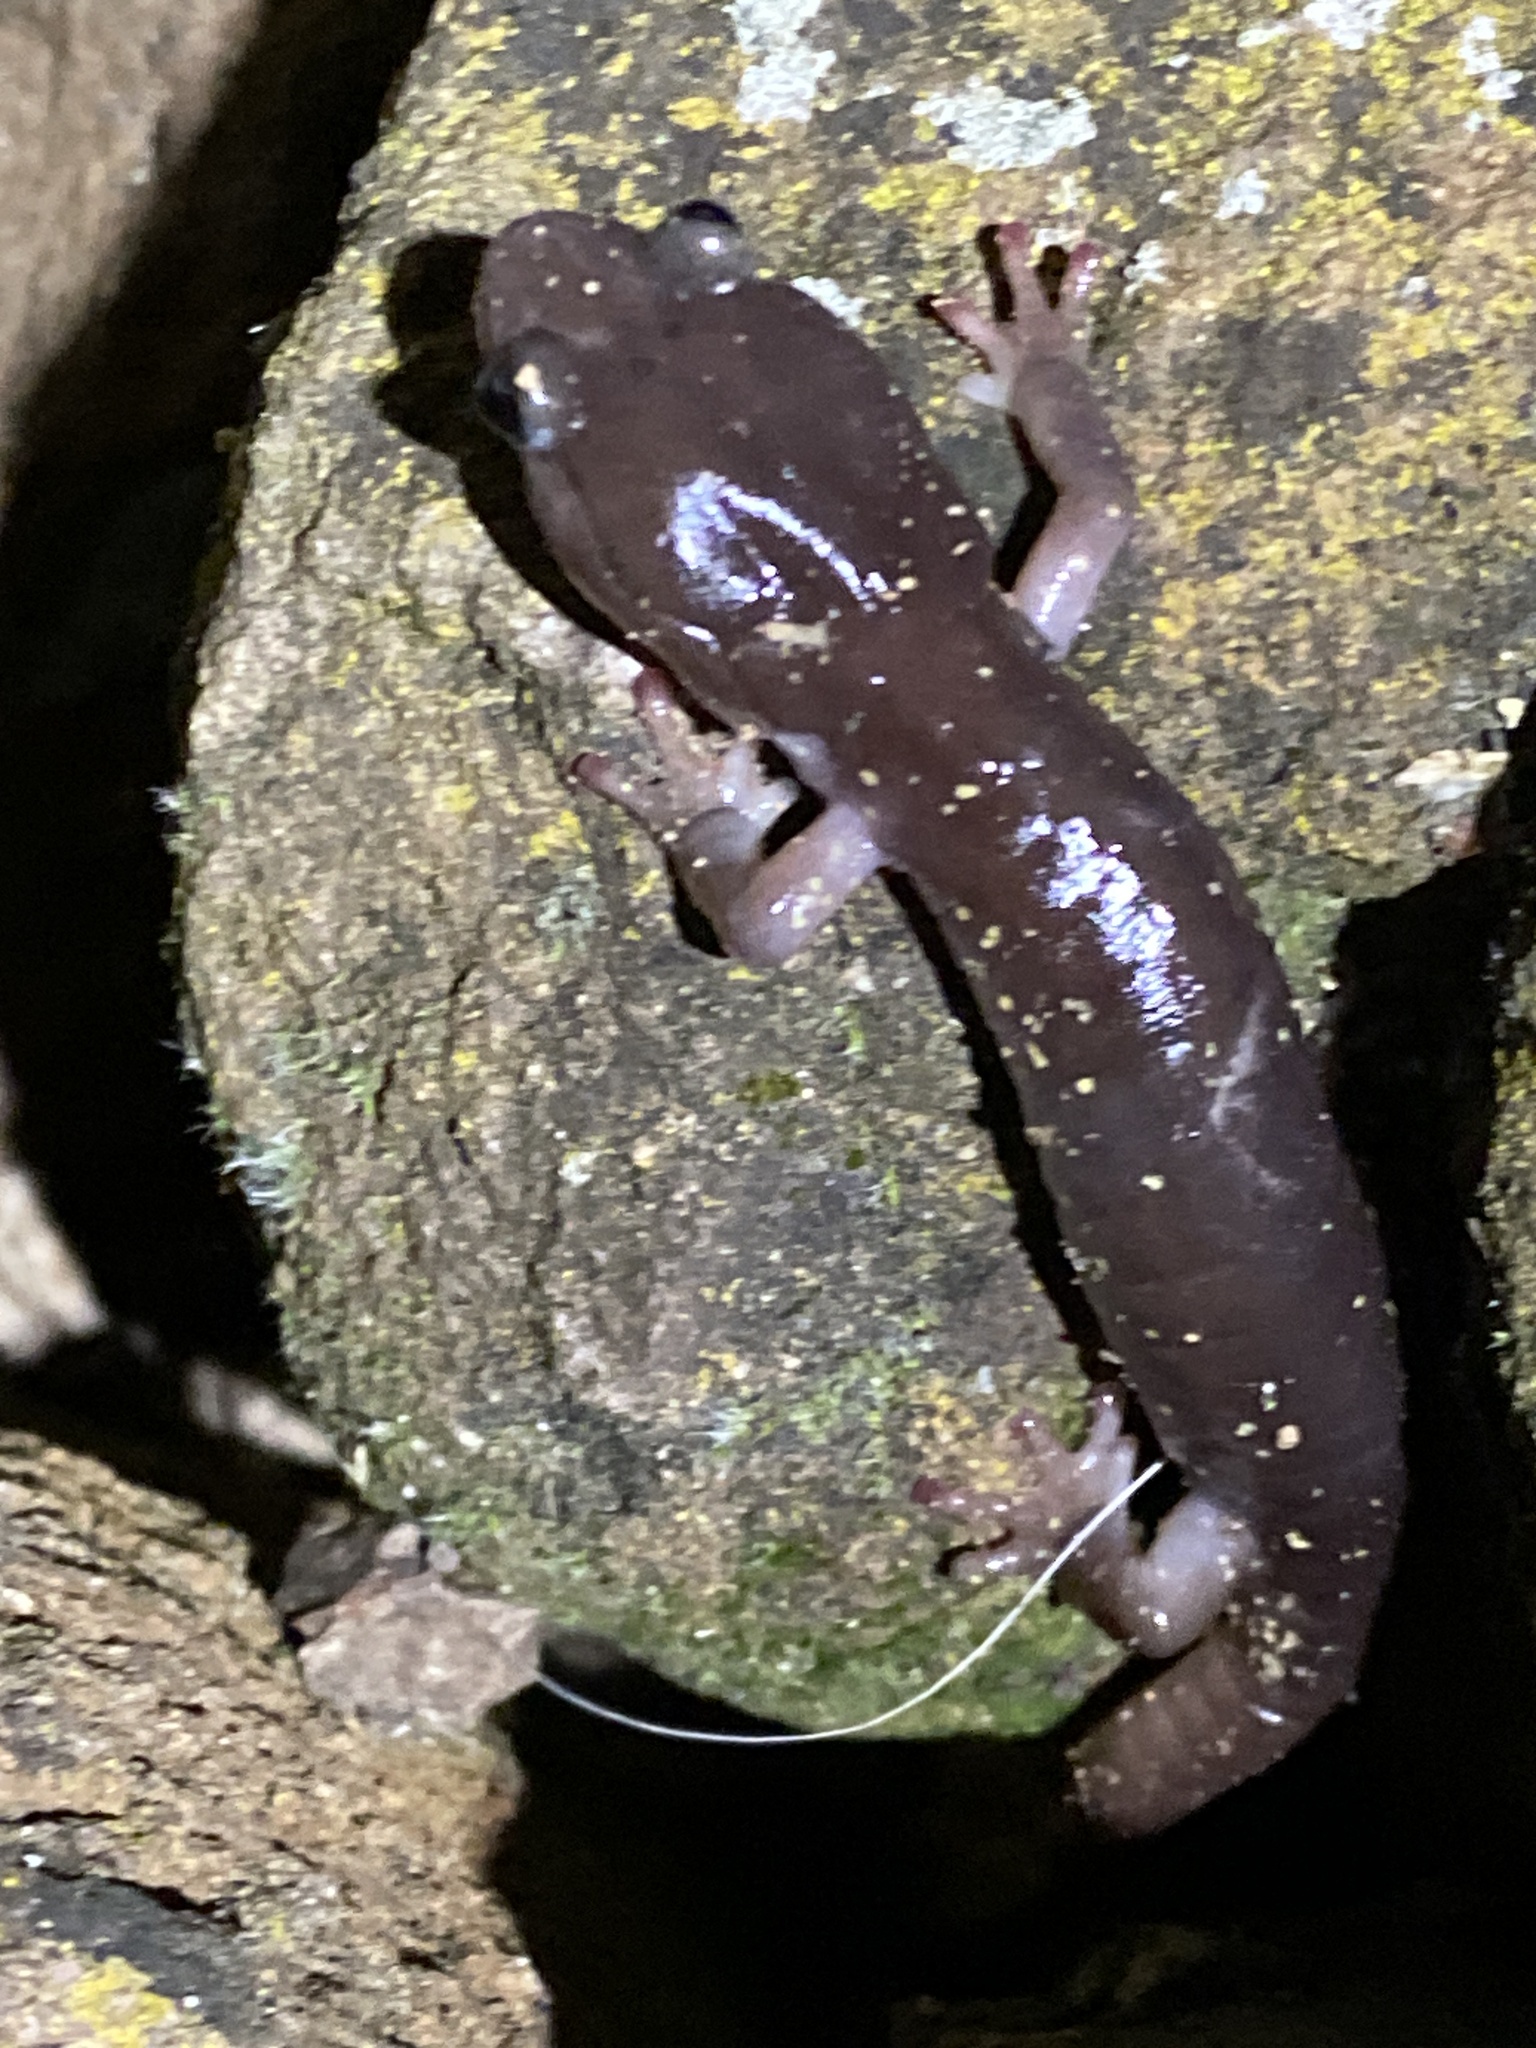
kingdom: Animalia
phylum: Chordata
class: Amphibia
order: Caudata
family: Plethodontidae
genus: Aneides
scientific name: Aneides lugubris
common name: Arboreal salamander
